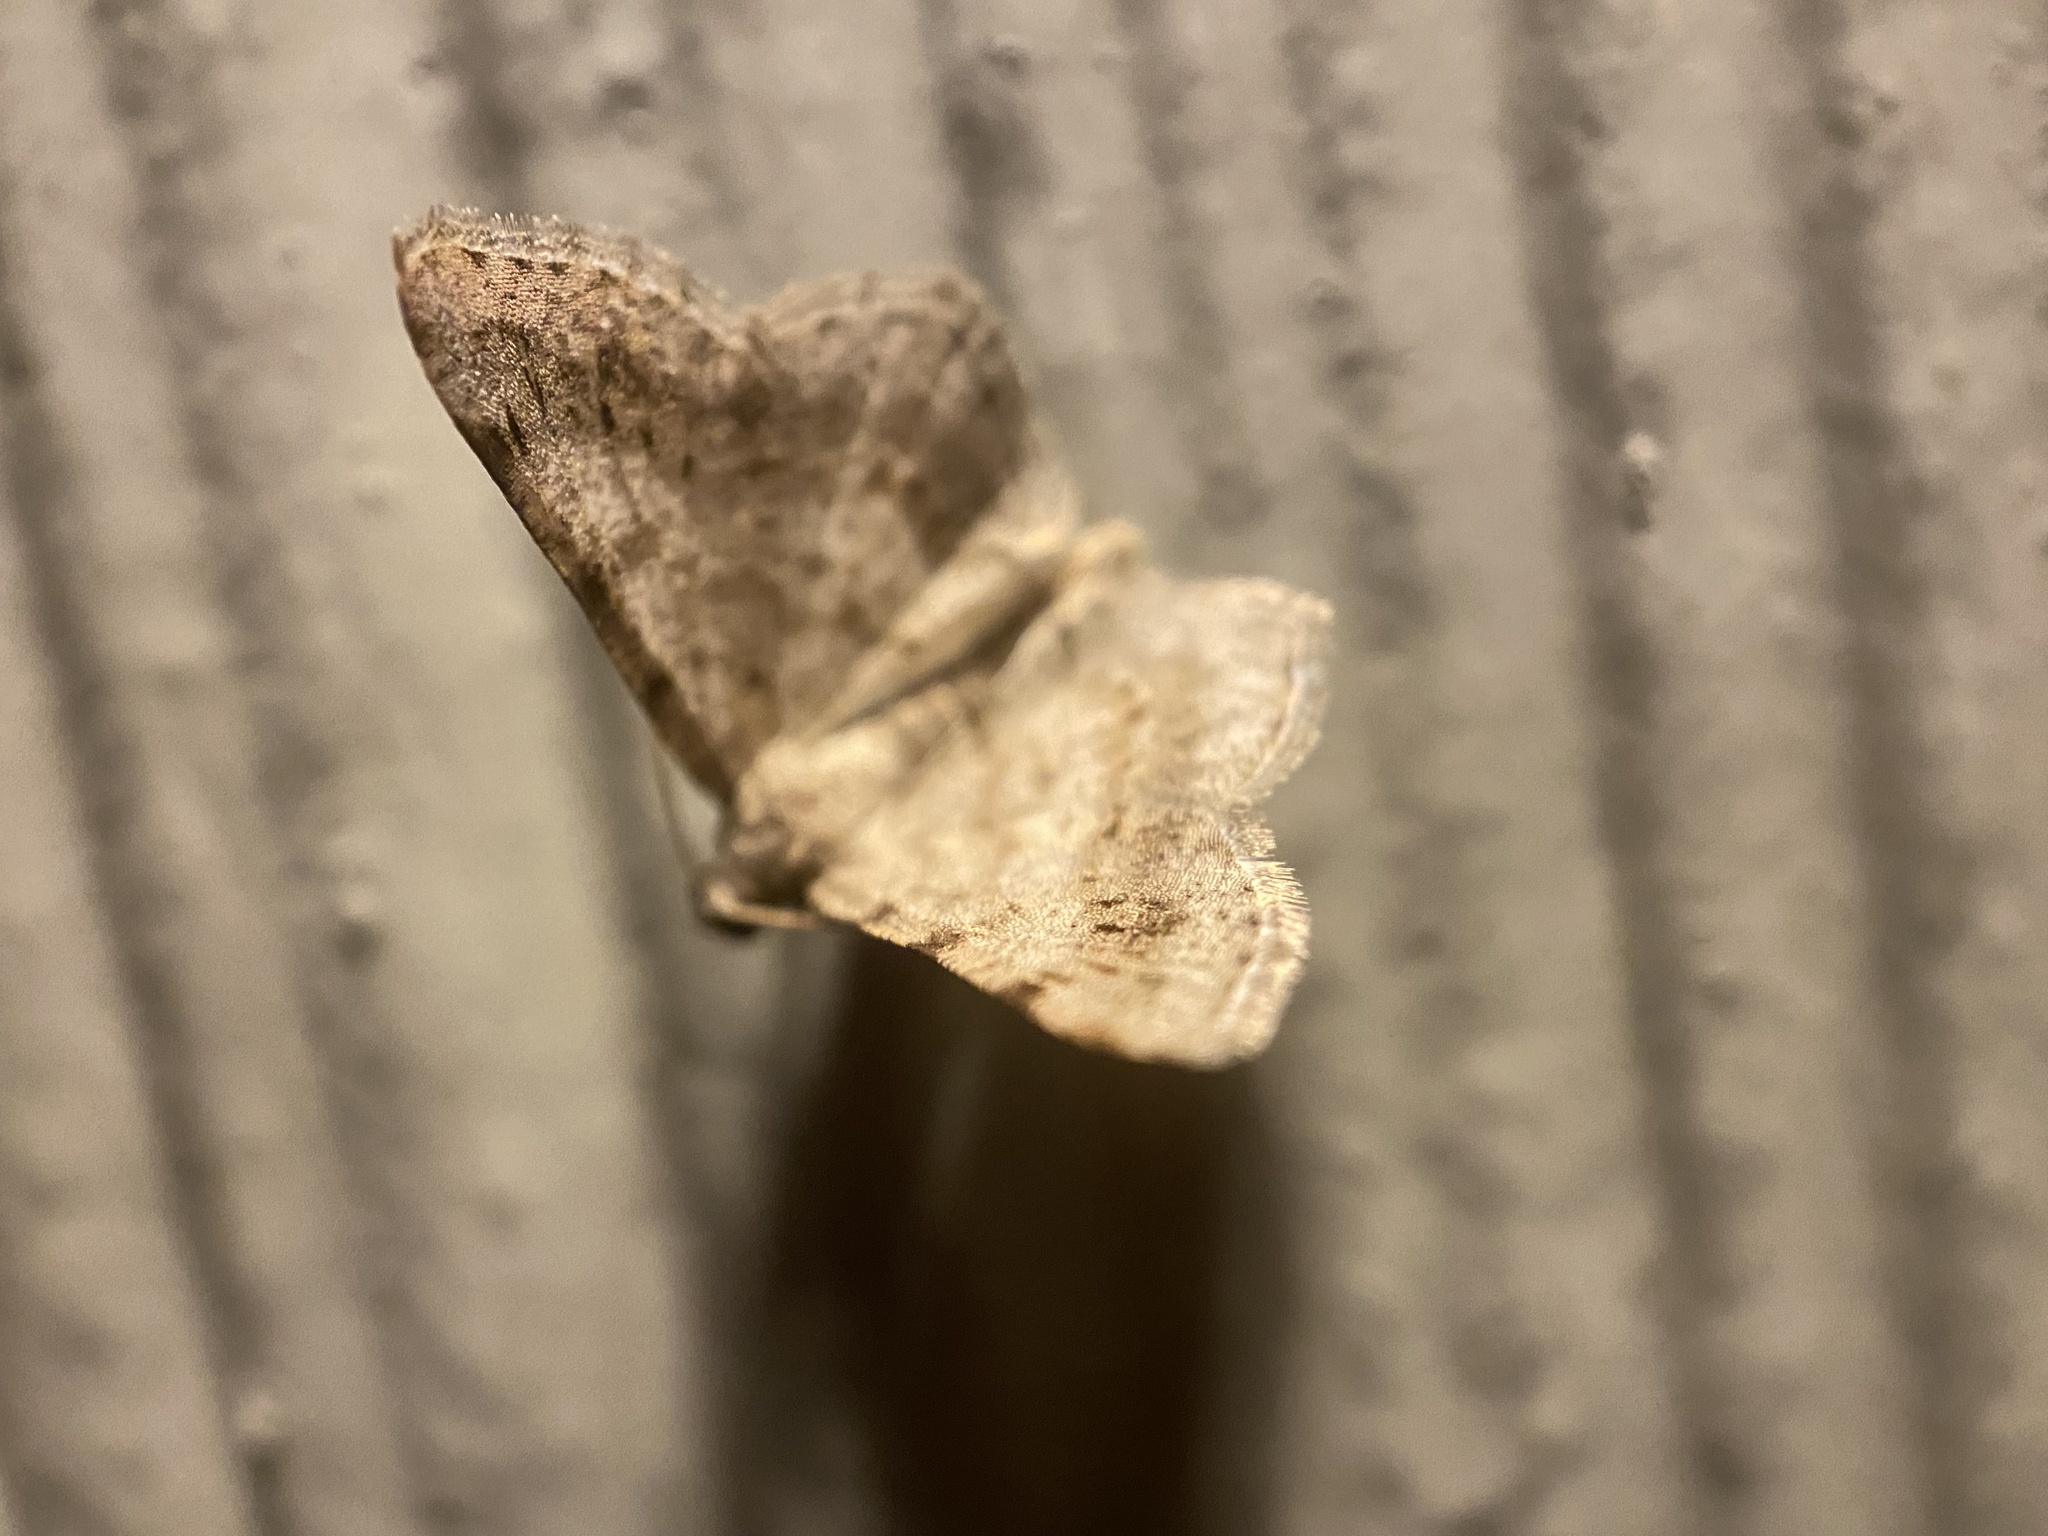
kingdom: Animalia
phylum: Arthropoda
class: Insecta
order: Lepidoptera
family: Geometridae
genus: Digrammia
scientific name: Digrammia ocellinata
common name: Faint-spotted angle
